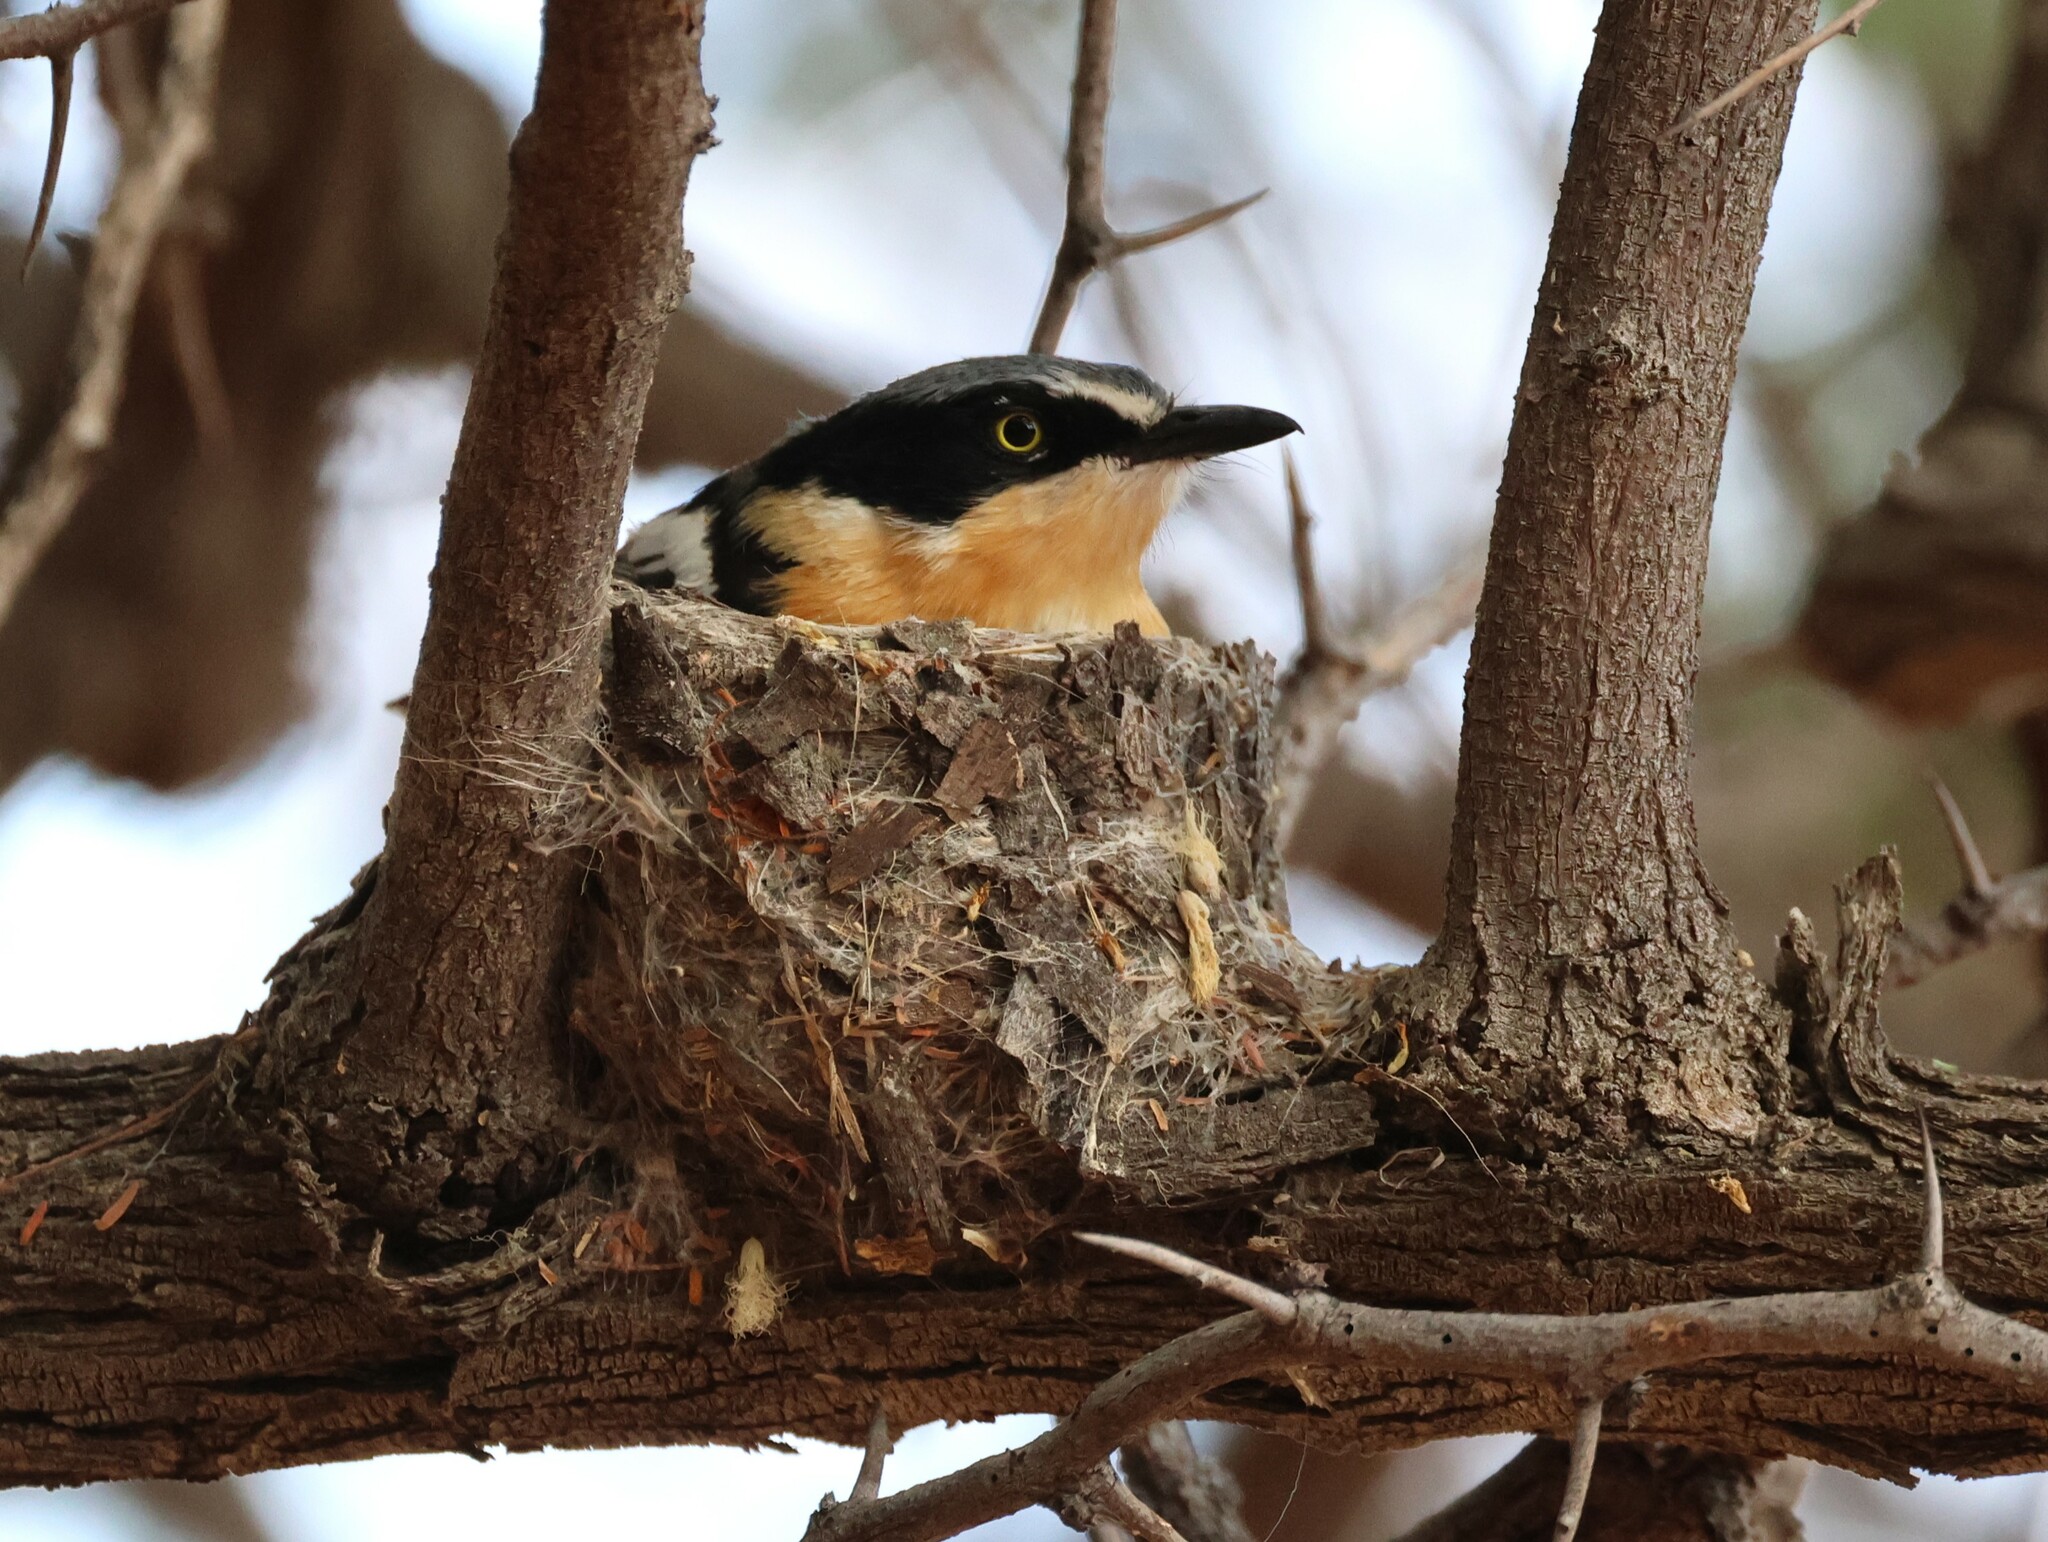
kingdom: Animalia
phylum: Chordata
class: Aves
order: Passeriformes
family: Platysteiridae
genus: Batis
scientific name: Batis pririt
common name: Pririt batis
